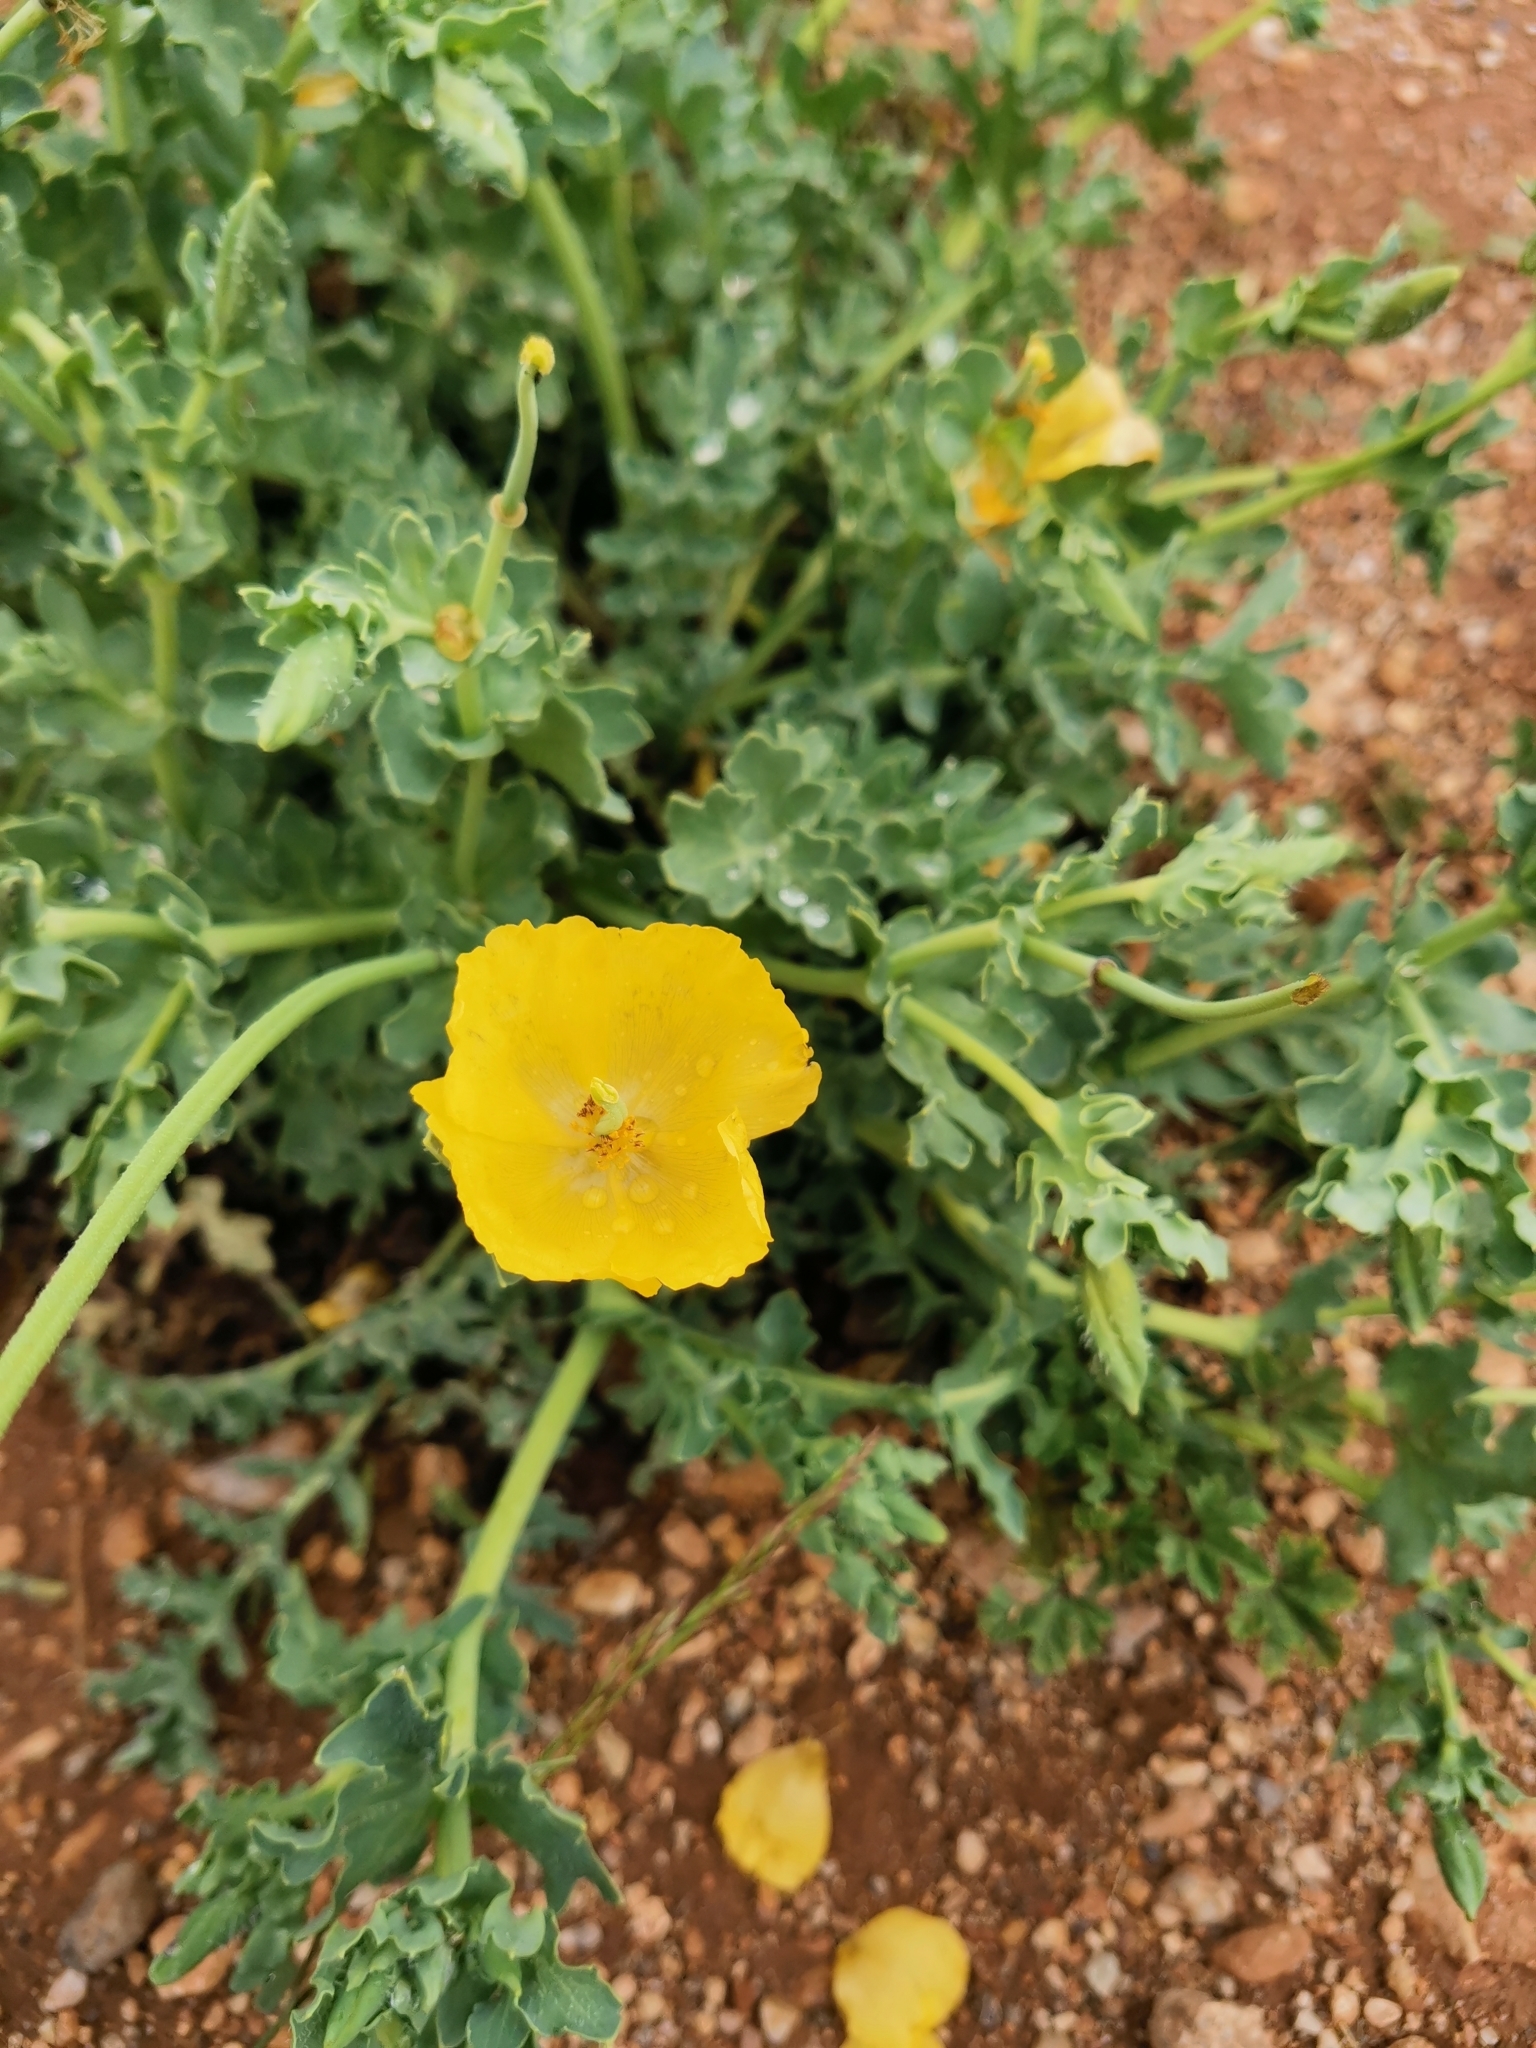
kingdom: Plantae
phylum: Tracheophyta
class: Magnoliopsida
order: Ranunculales
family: Papaveraceae
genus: Glaucium
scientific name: Glaucium flavum
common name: Yellow horned-poppy
